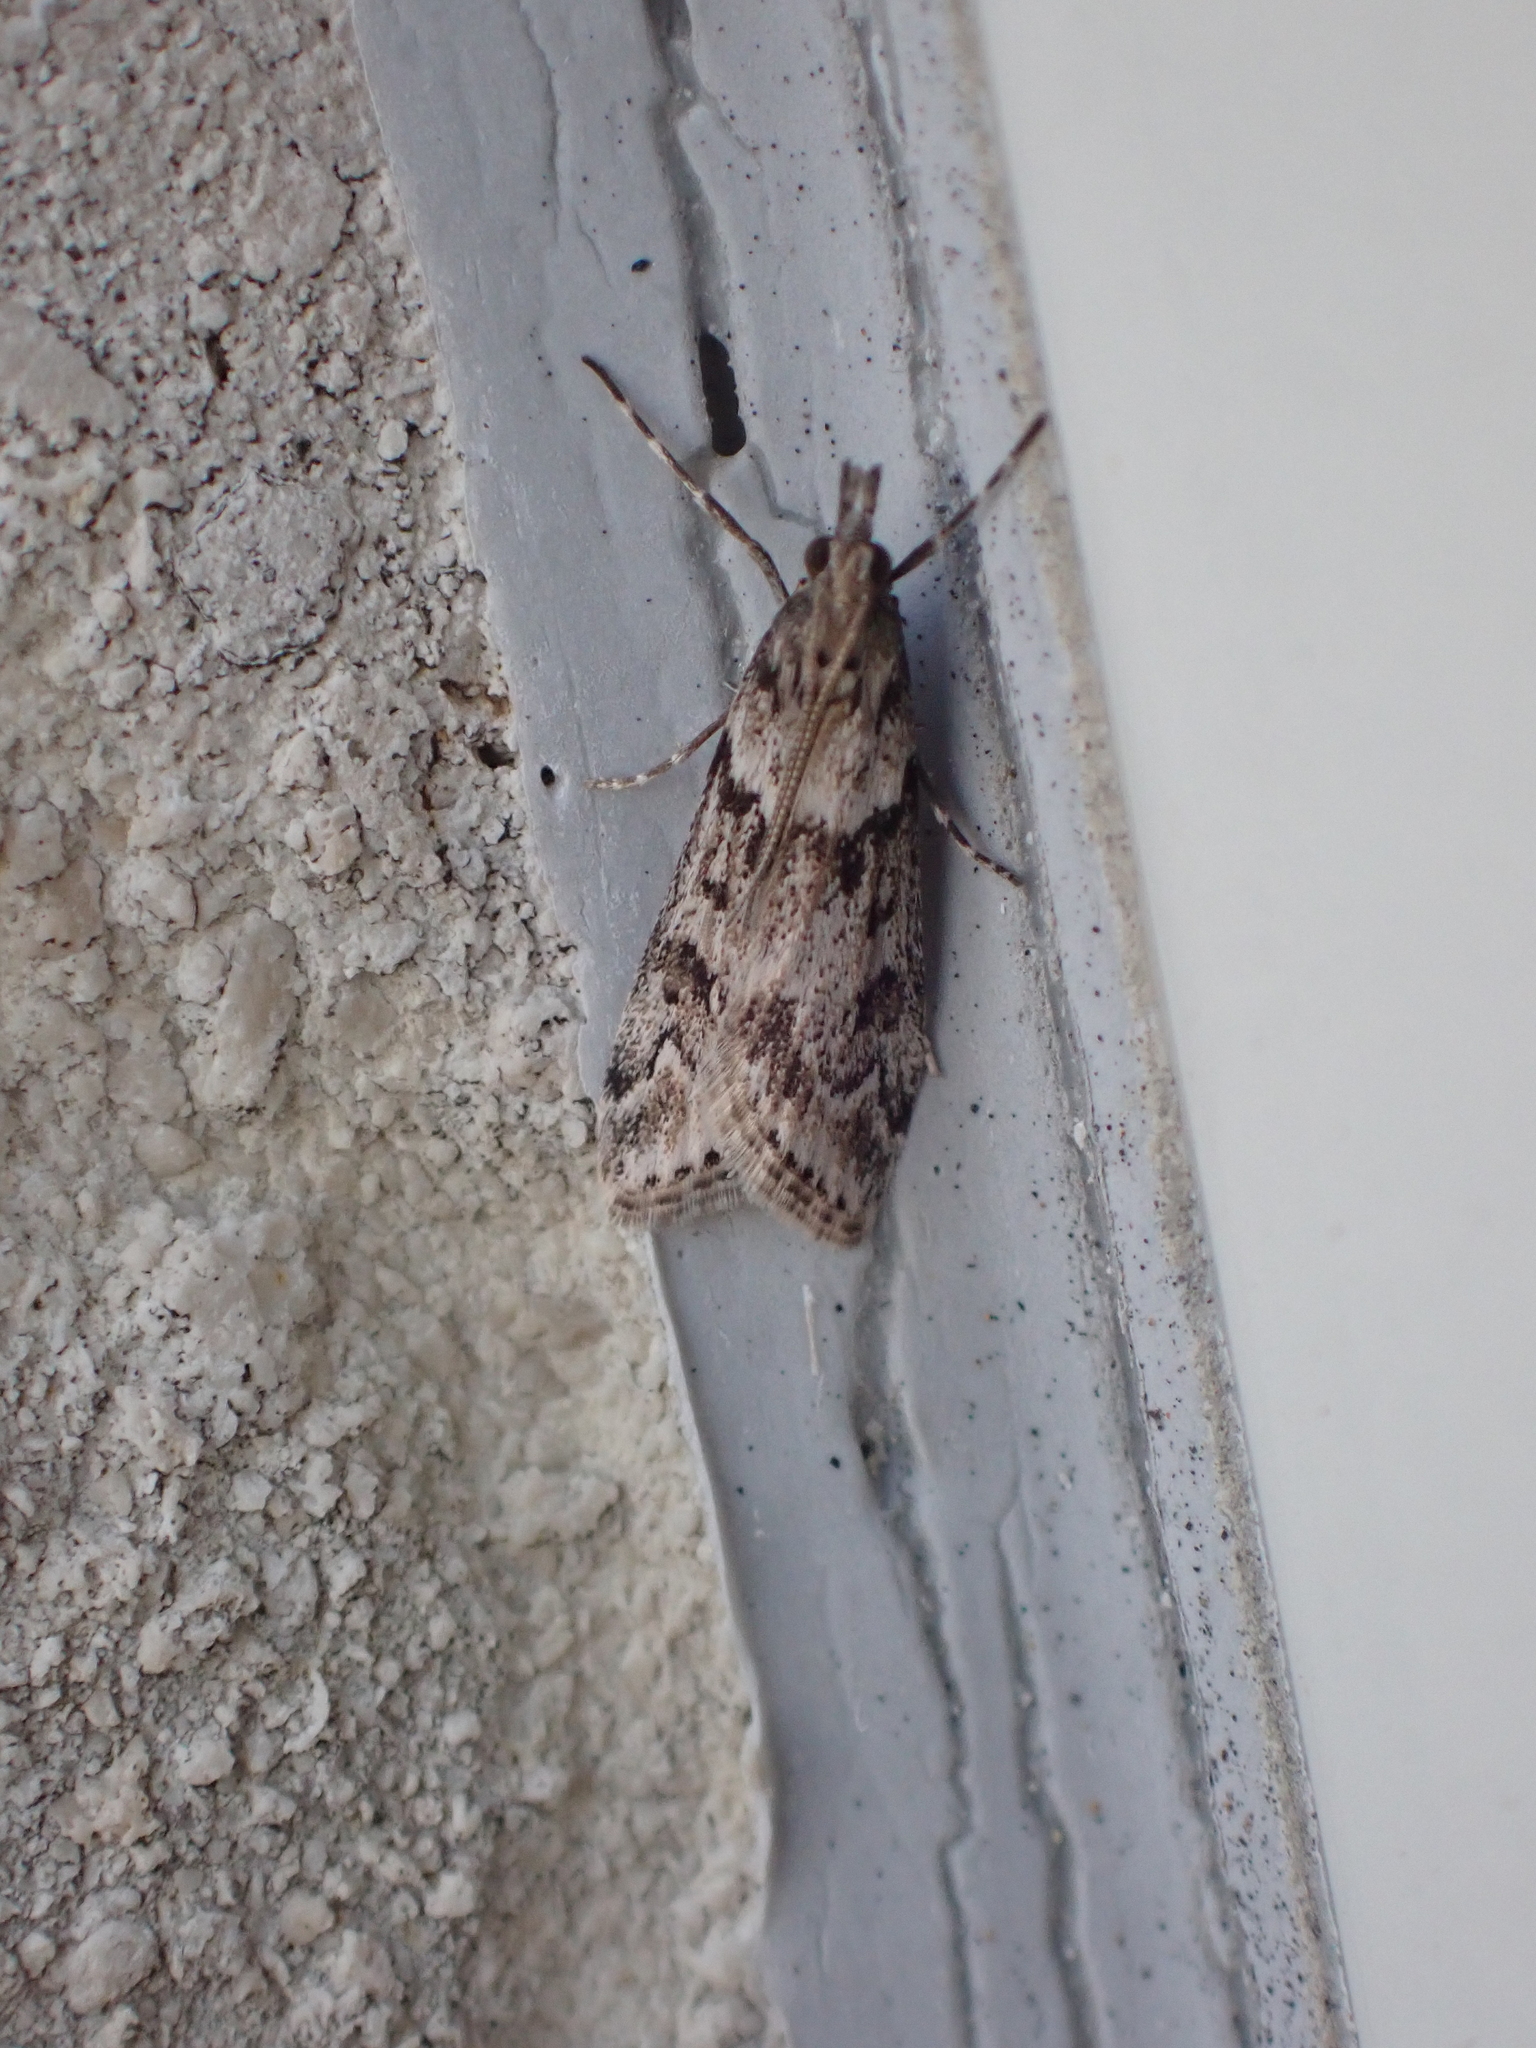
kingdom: Animalia
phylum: Arthropoda
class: Insecta
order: Lepidoptera
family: Crambidae
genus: Eudonia
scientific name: Eudonia angustea
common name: Narrow-winged grey
